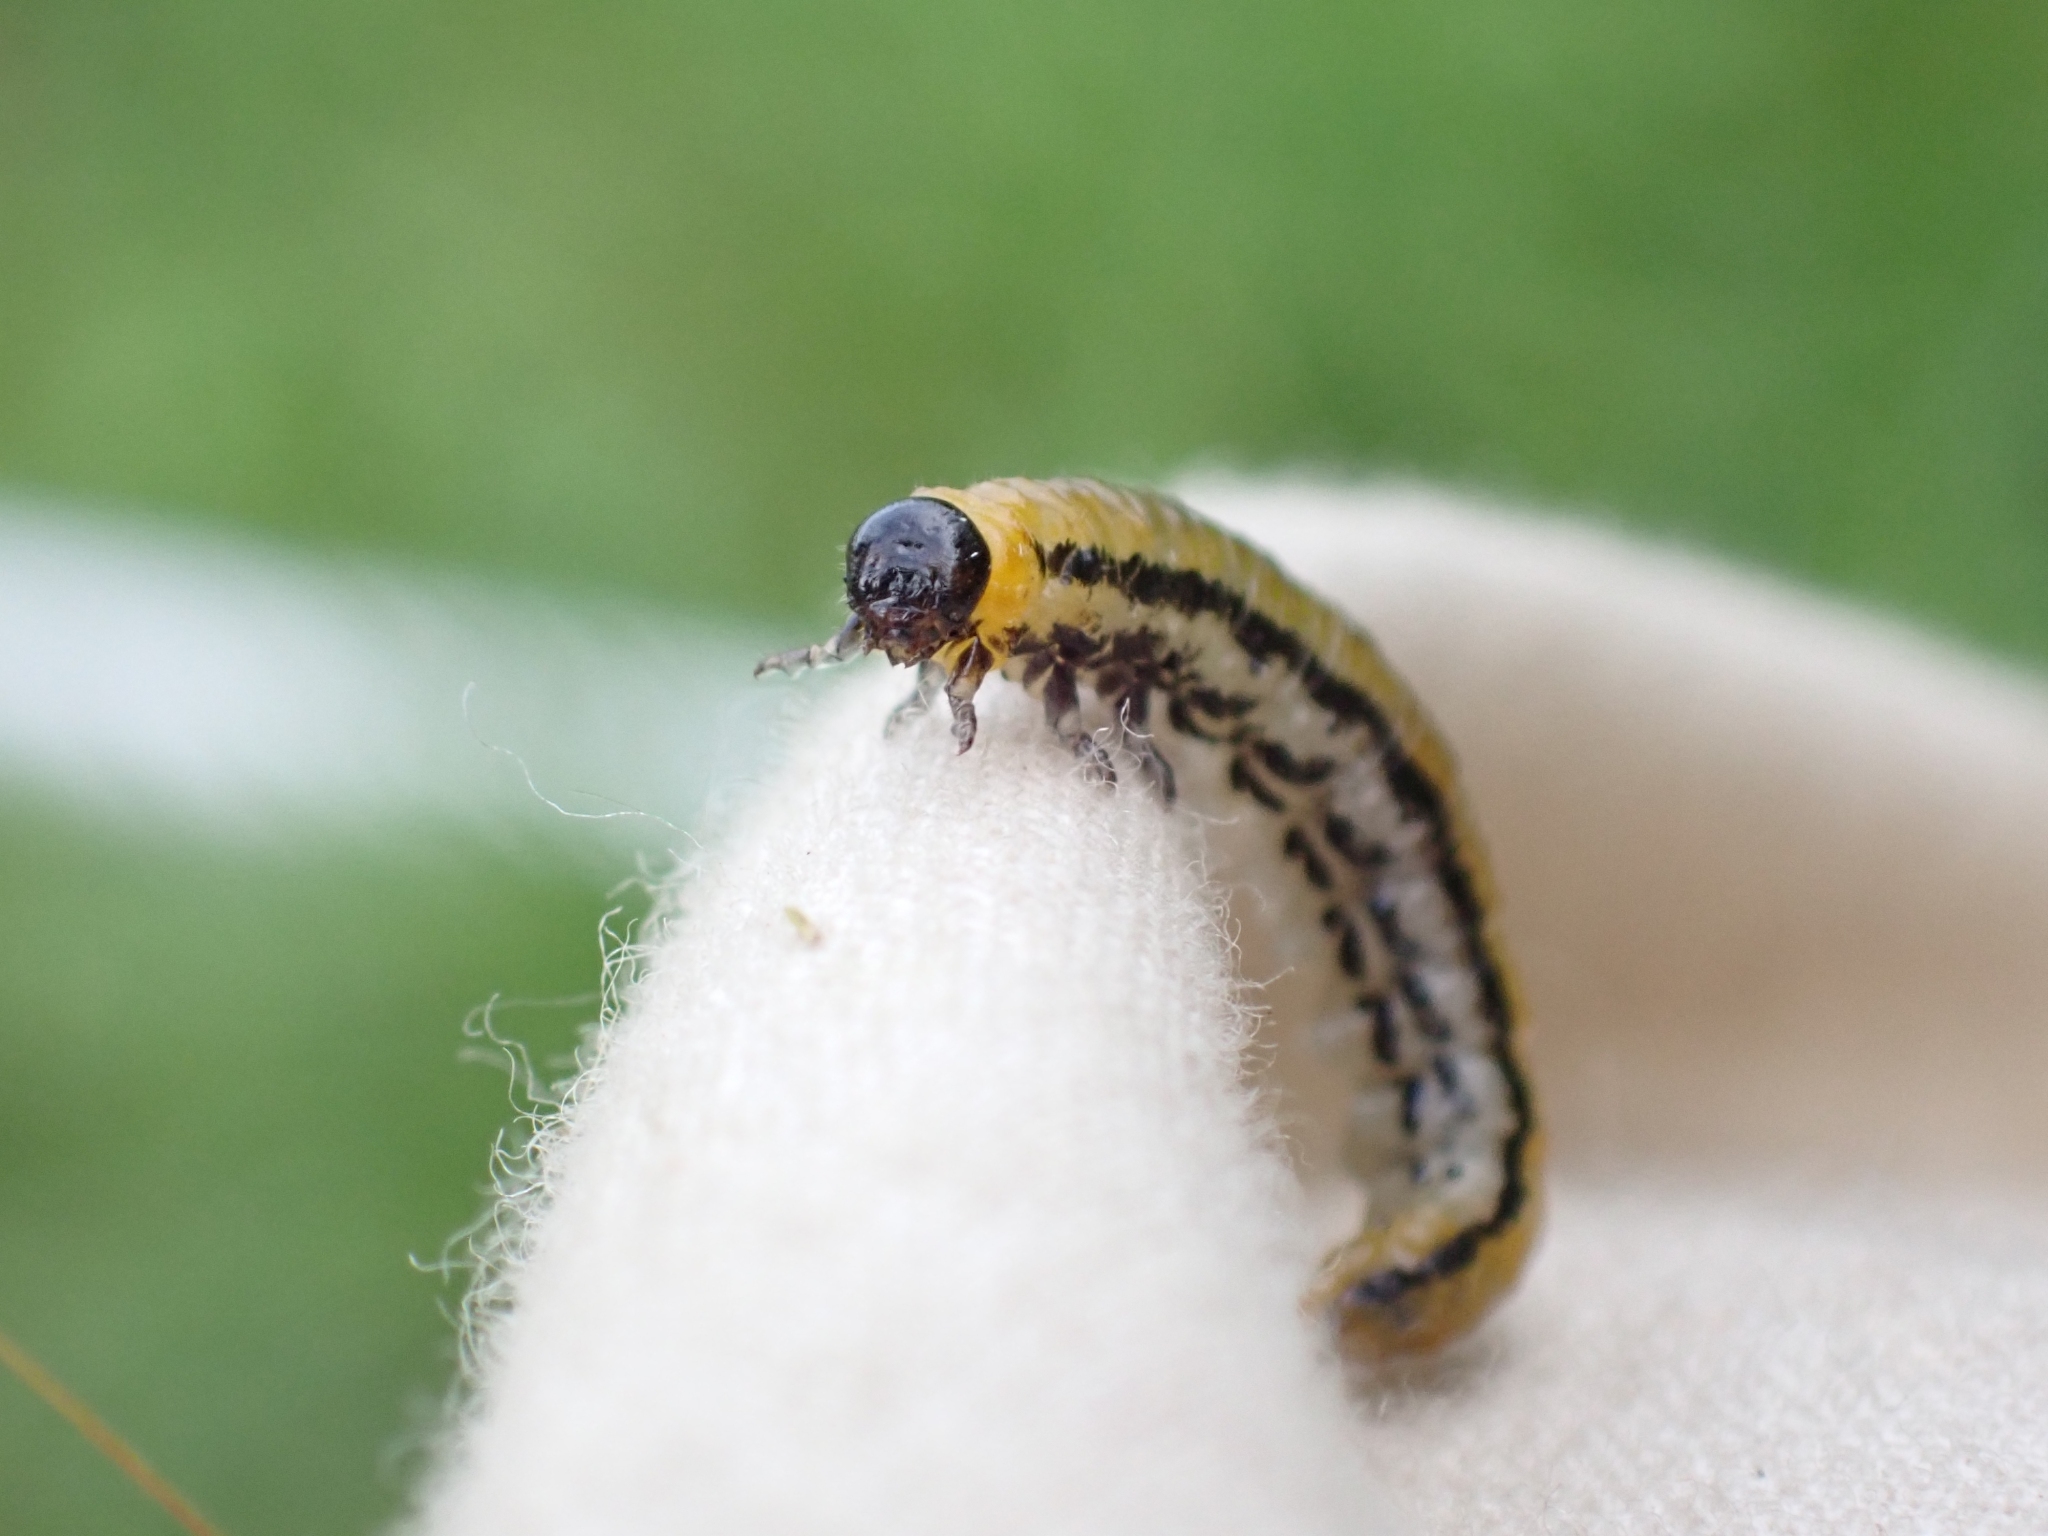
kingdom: Animalia
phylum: Arthropoda
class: Insecta
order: Hymenoptera
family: Tenthredinidae
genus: Hemichroa
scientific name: Hemichroa crocea
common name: Striped alder sawfly
